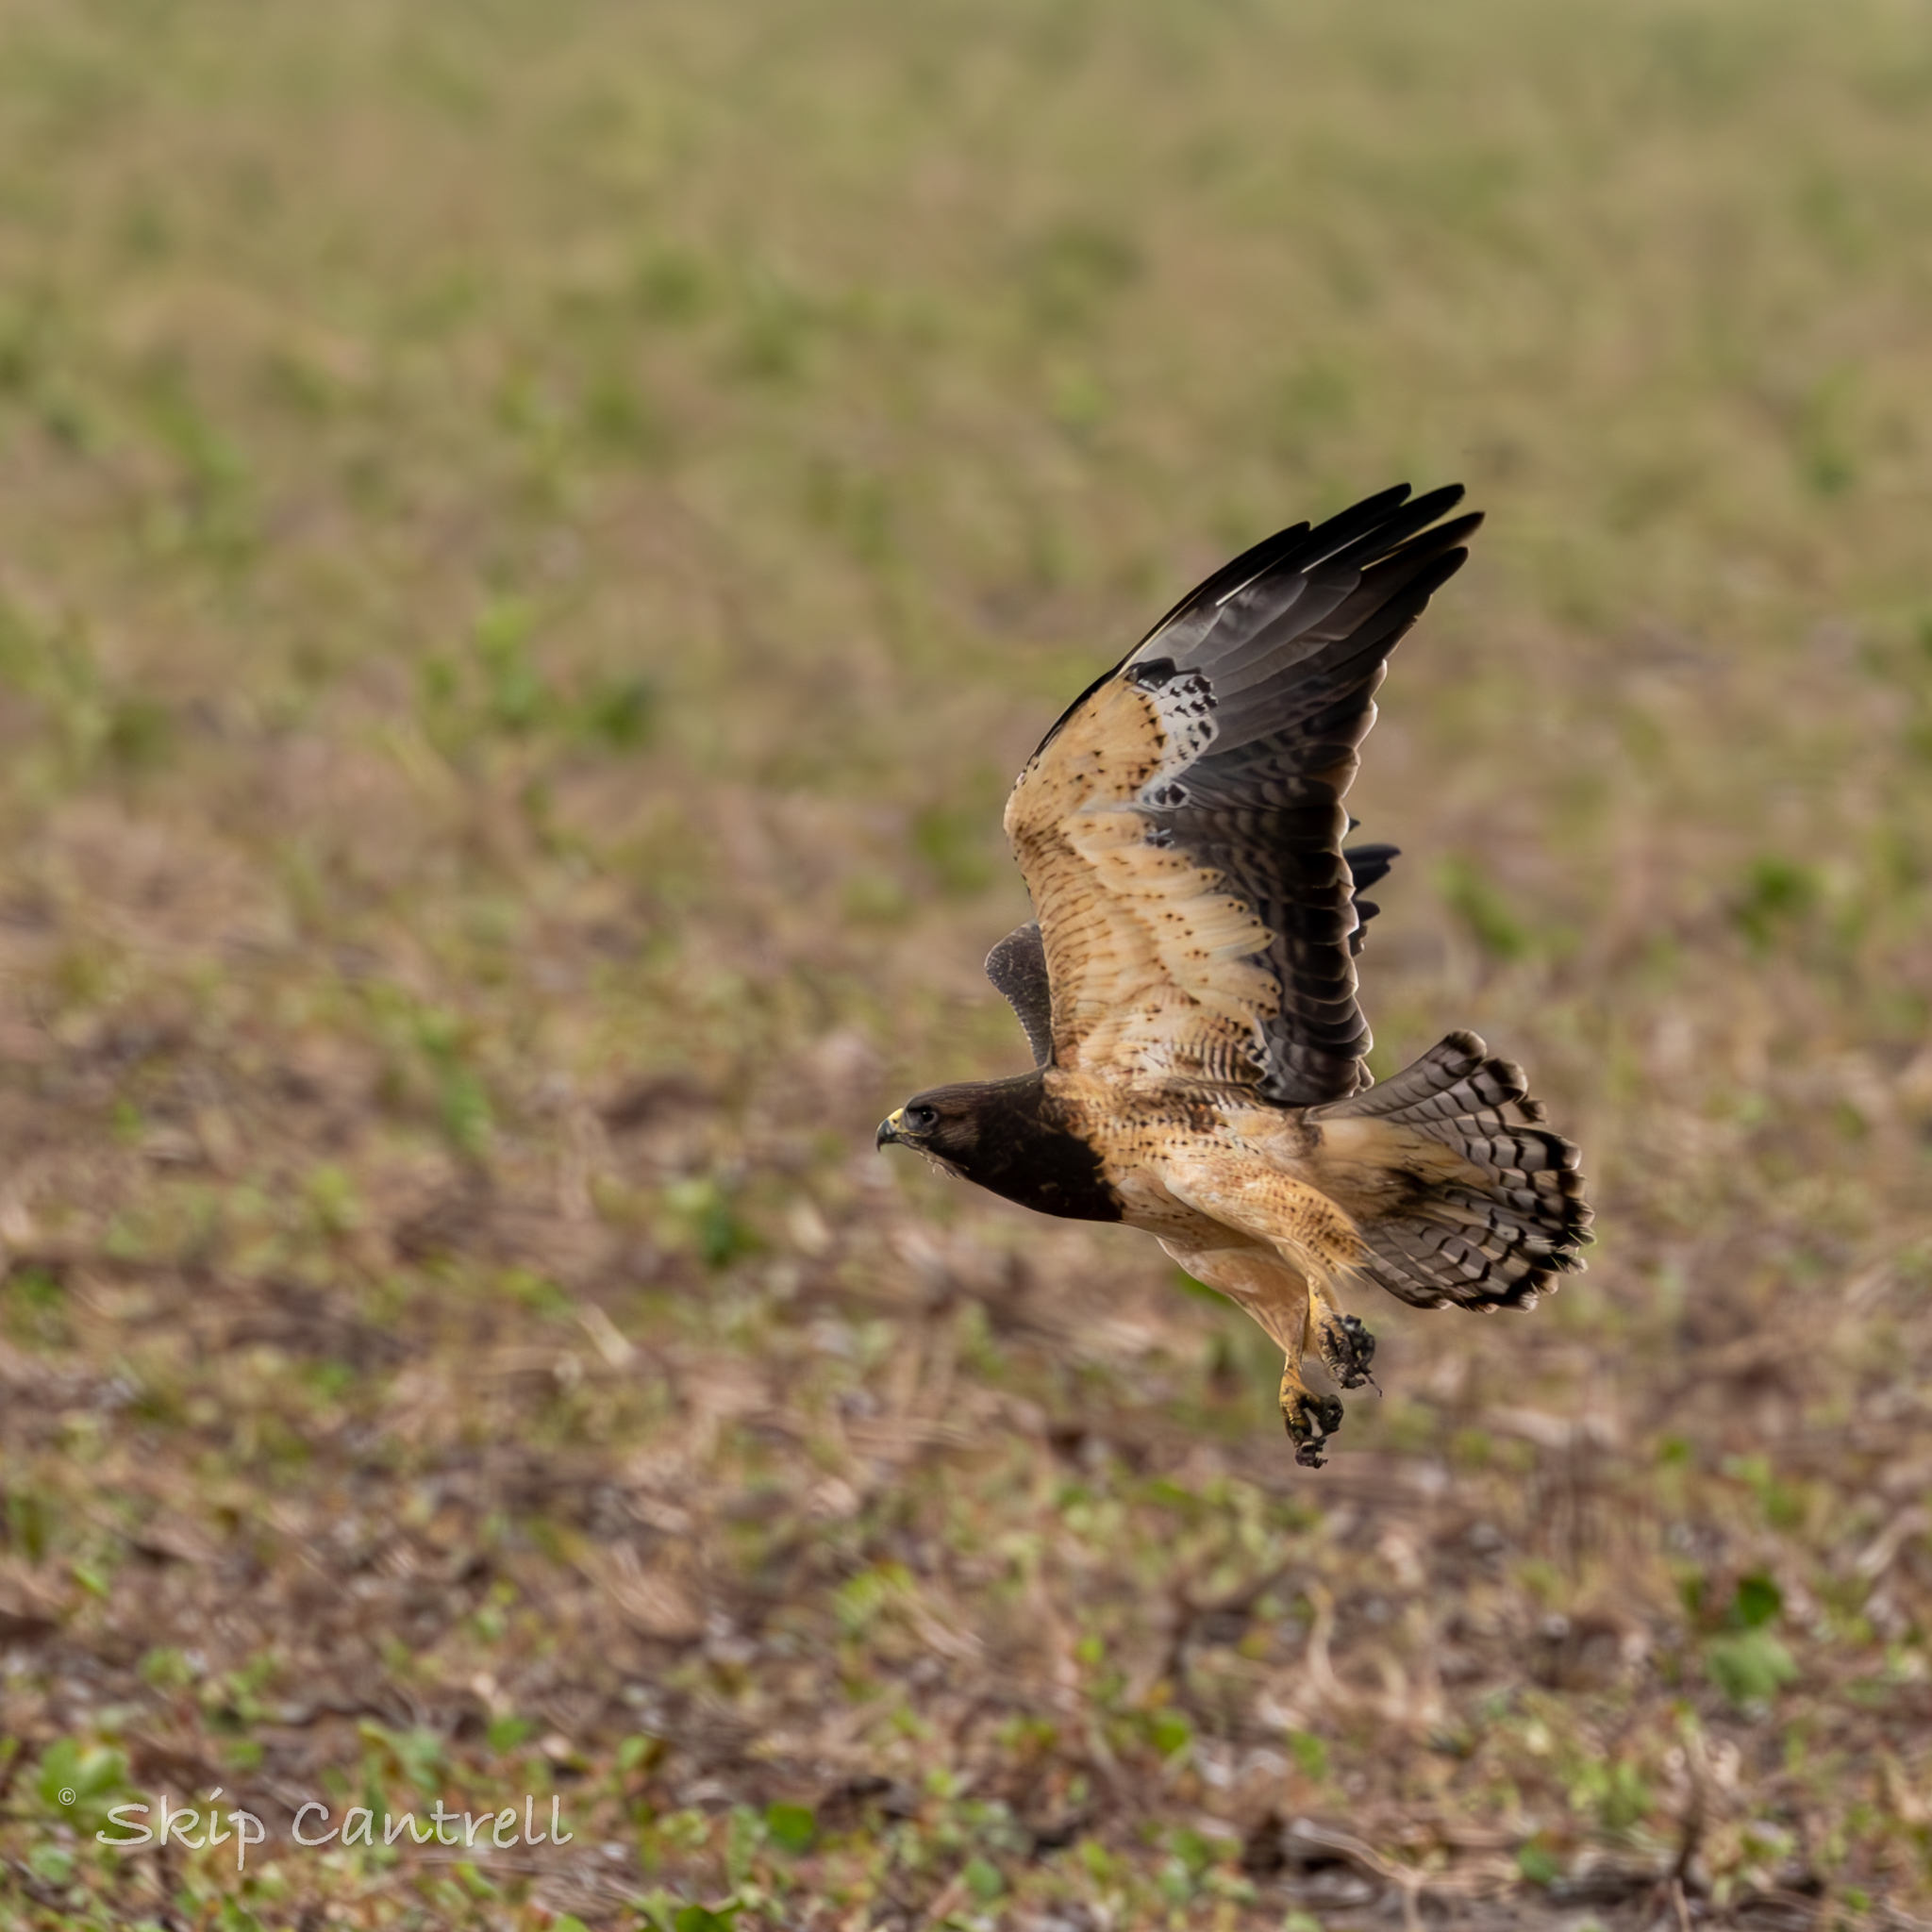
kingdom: Animalia
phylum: Chordata
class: Aves
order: Accipitriformes
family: Accipitridae
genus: Buteo
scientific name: Buteo swainsoni
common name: Swainson's hawk
